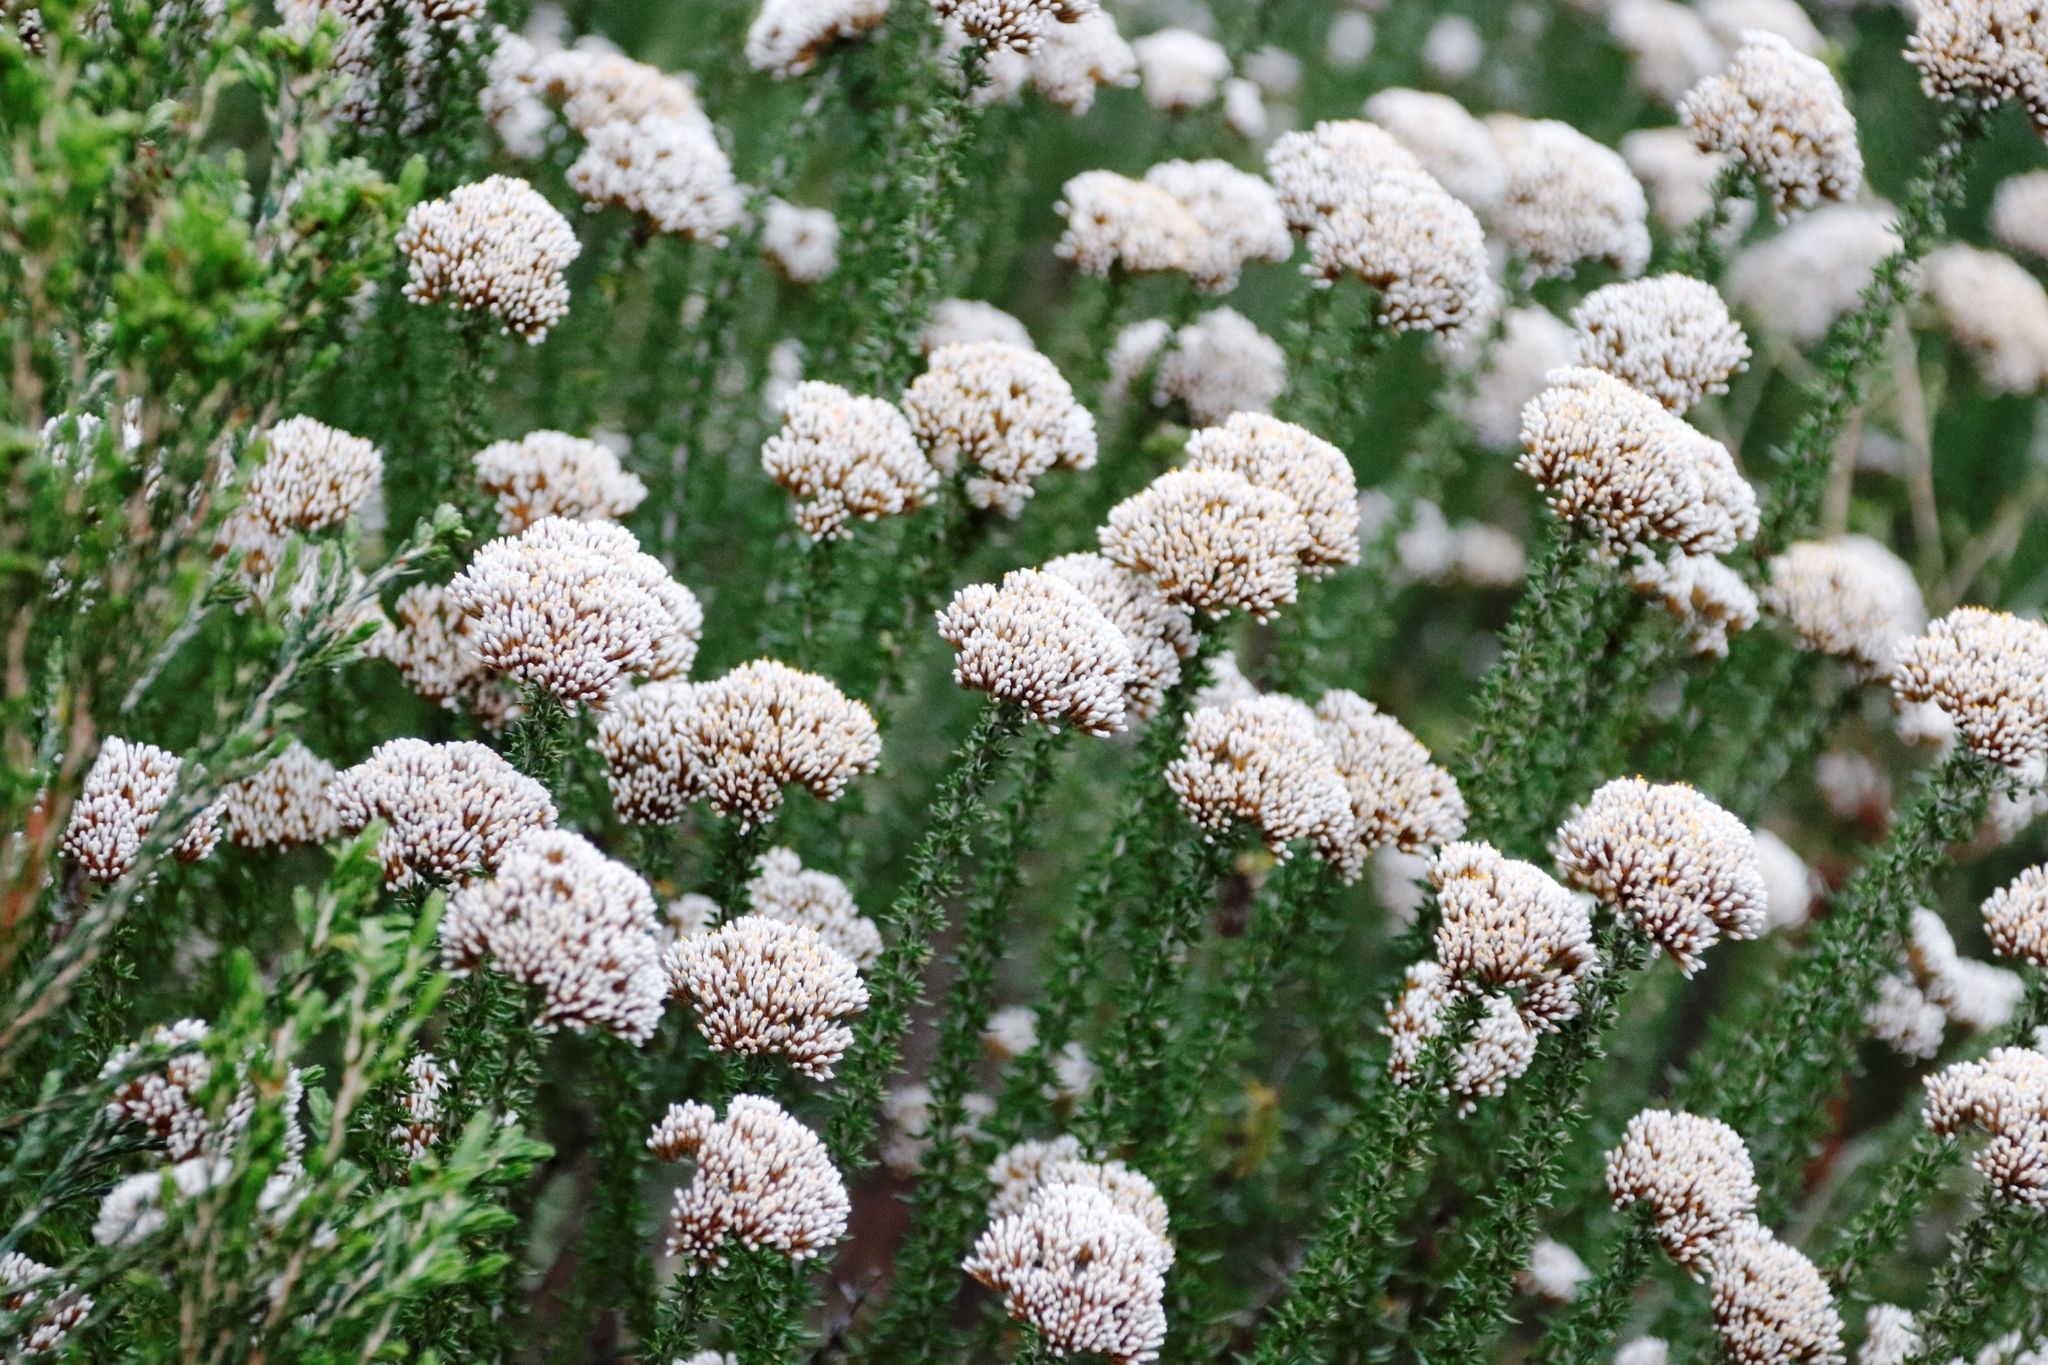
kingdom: Plantae
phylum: Tracheophyta
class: Magnoliopsida
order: Asterales
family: Asteraceae
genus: Metalasia
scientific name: Metalasia densa
